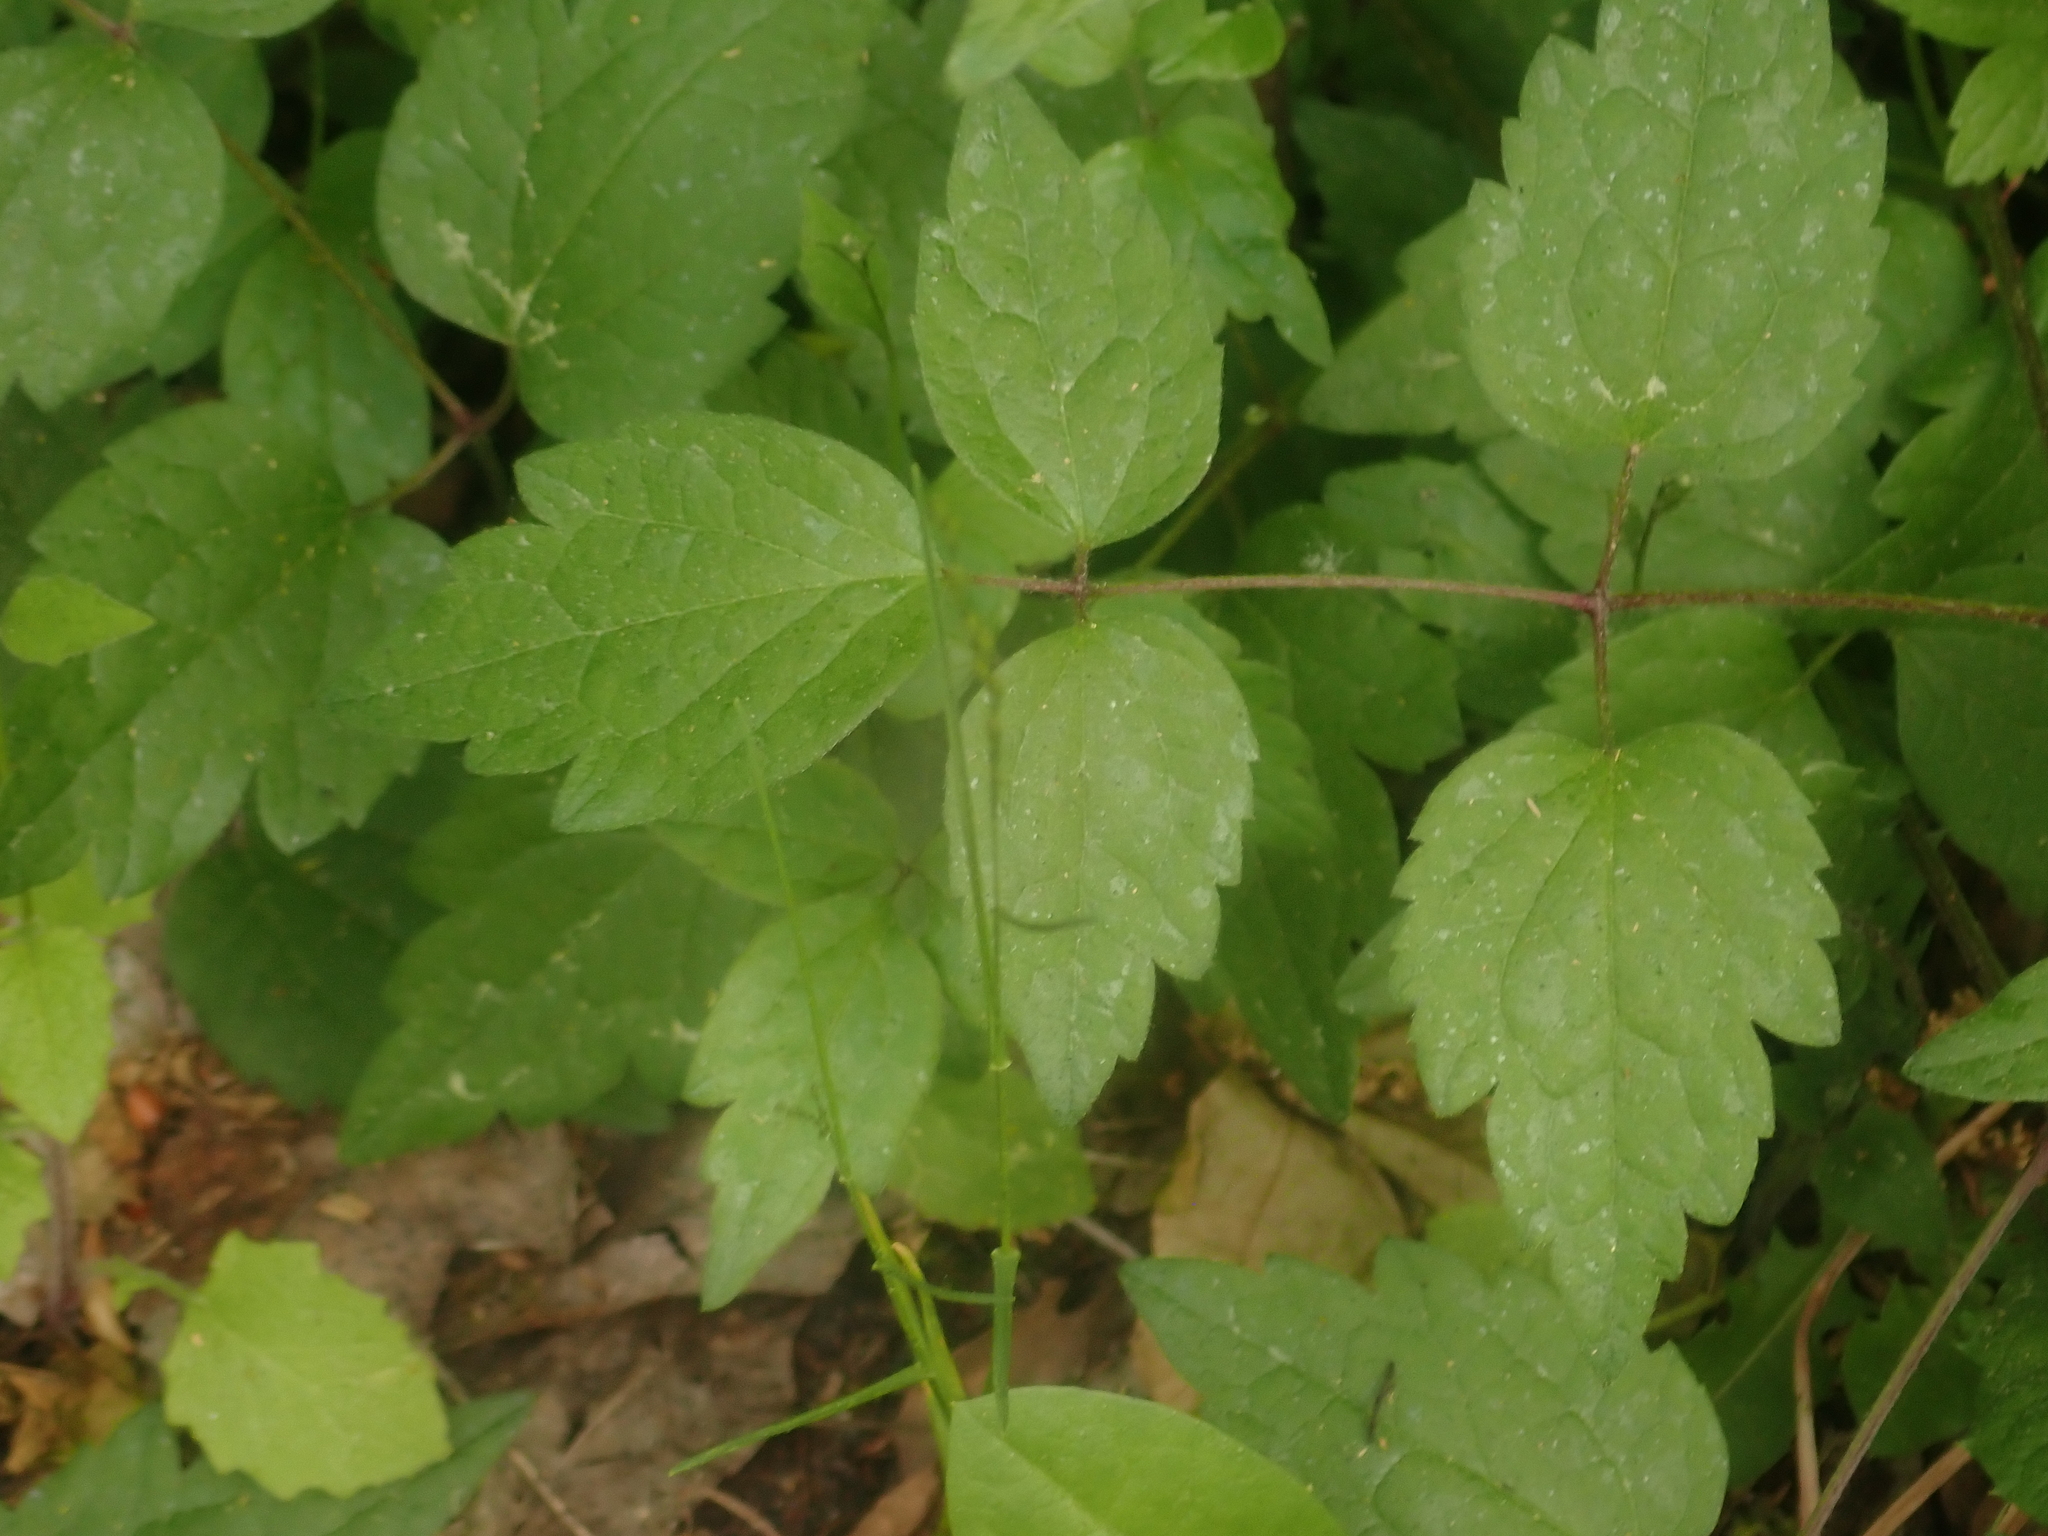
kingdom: Plantae
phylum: Tracheophyta
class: Magnoliopsida
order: Ranunculales
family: Ranunculaceae
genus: Clematis
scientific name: Clematis vitalba
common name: Evergreen clematis
